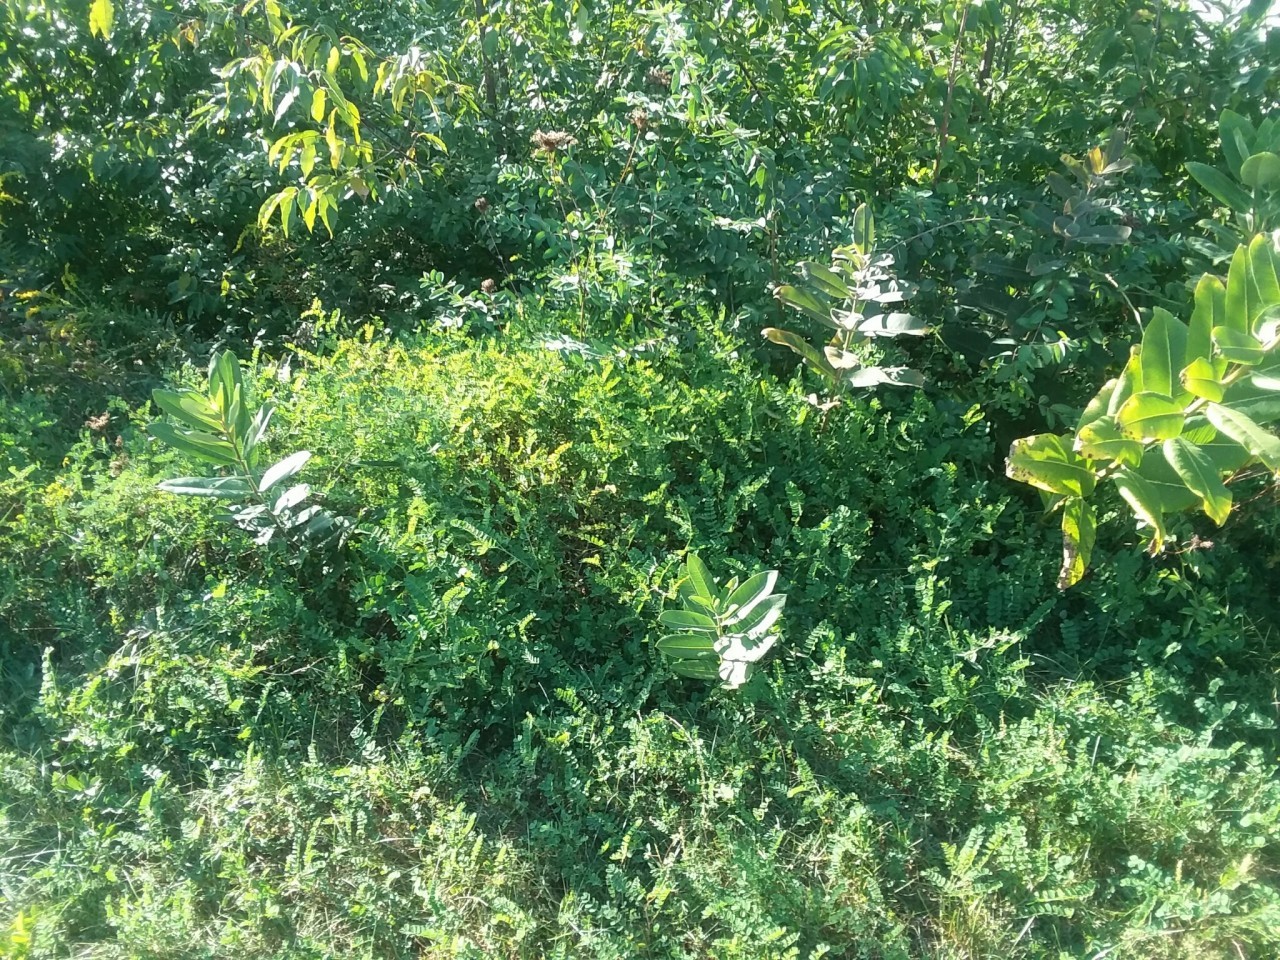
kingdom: Plantae
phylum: Tracheophyta
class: Magnoliopsida
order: Gentianales
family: Apocynaceae
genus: Asclepias
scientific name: Asclepias syriaca
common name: Common milkweed
